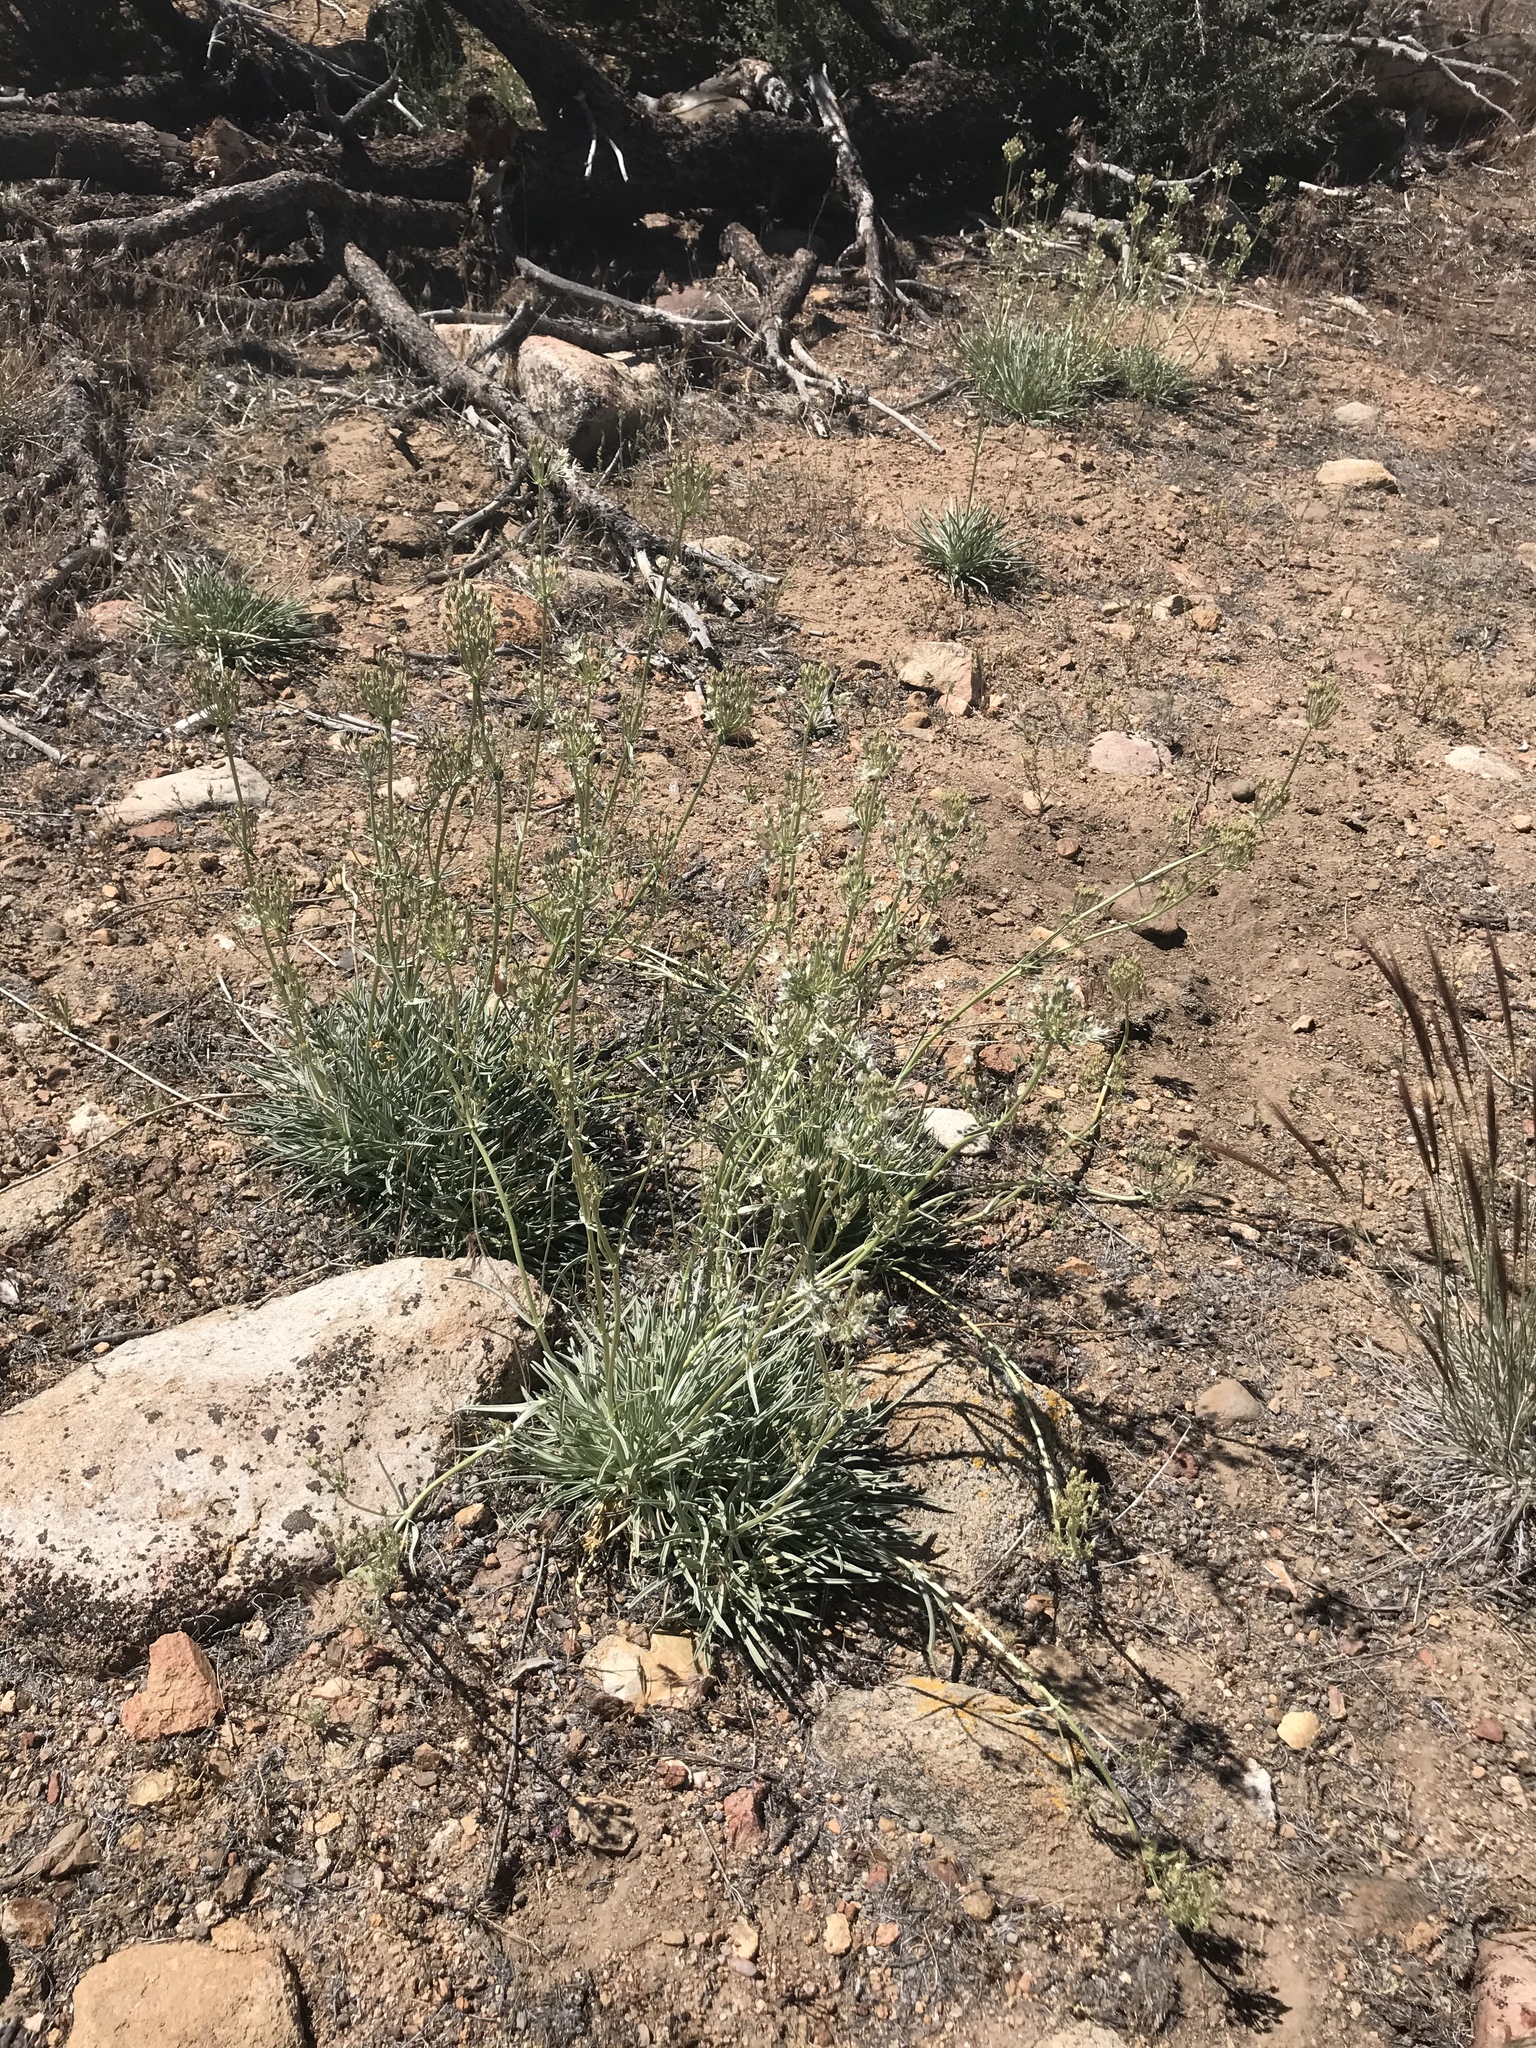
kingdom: Plantae
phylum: Tracheophyta
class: Magnoliopsida
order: Gentianales
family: Gentianaceae
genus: Frasera
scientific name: Frasera neglecta
